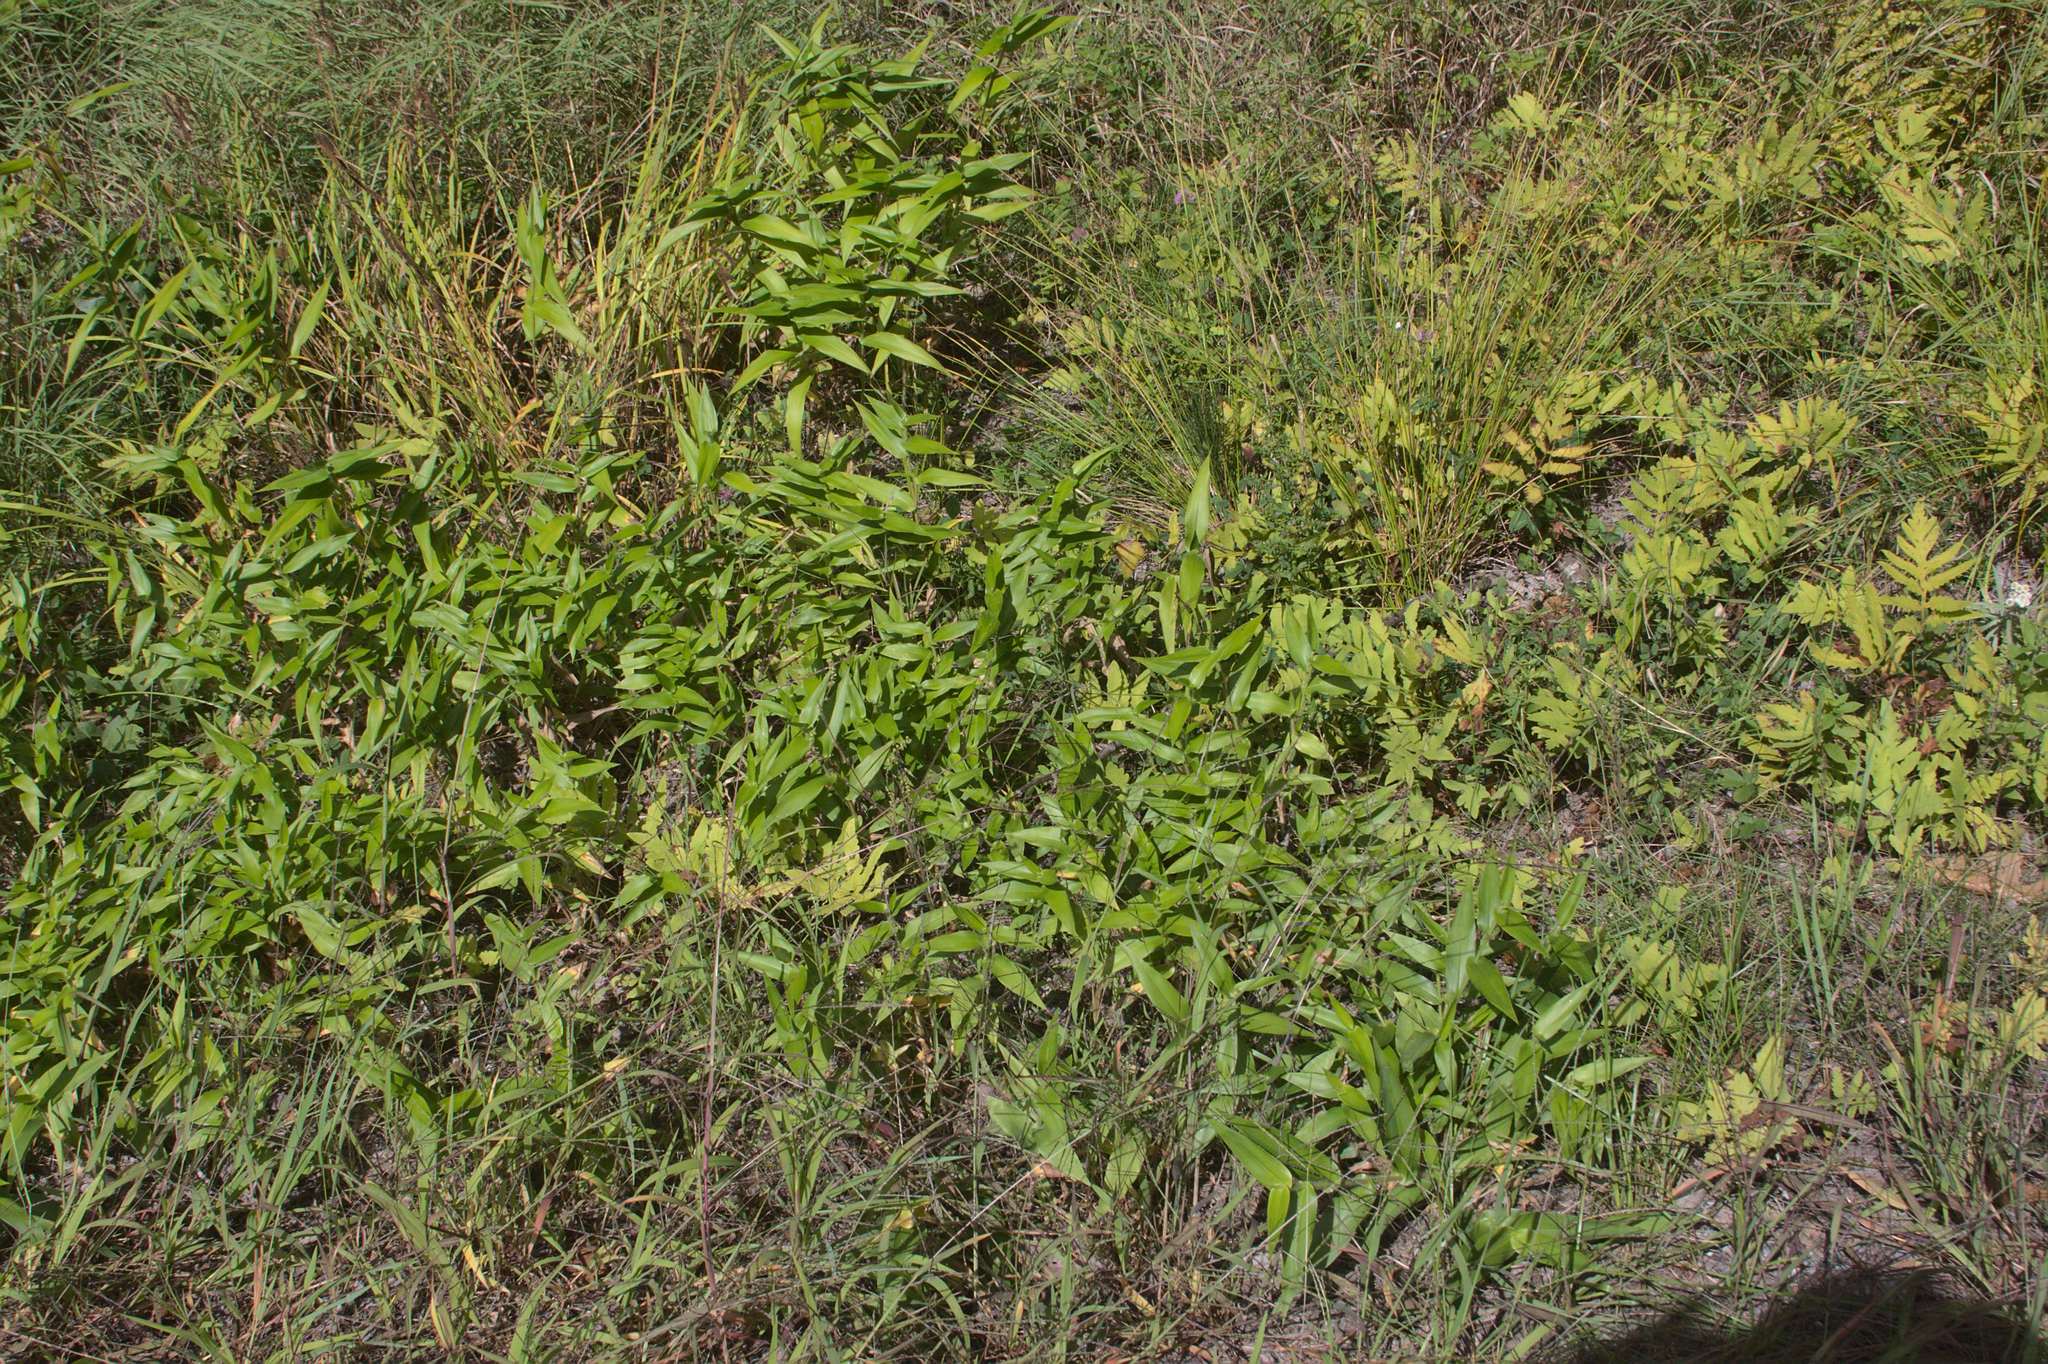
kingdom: Plantae
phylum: Tracheophyta
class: Liliopsida
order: Poales
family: Poaceae
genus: Dichanthelium
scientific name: Dichanthelium clandestinum
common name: Deer-tongue grass
